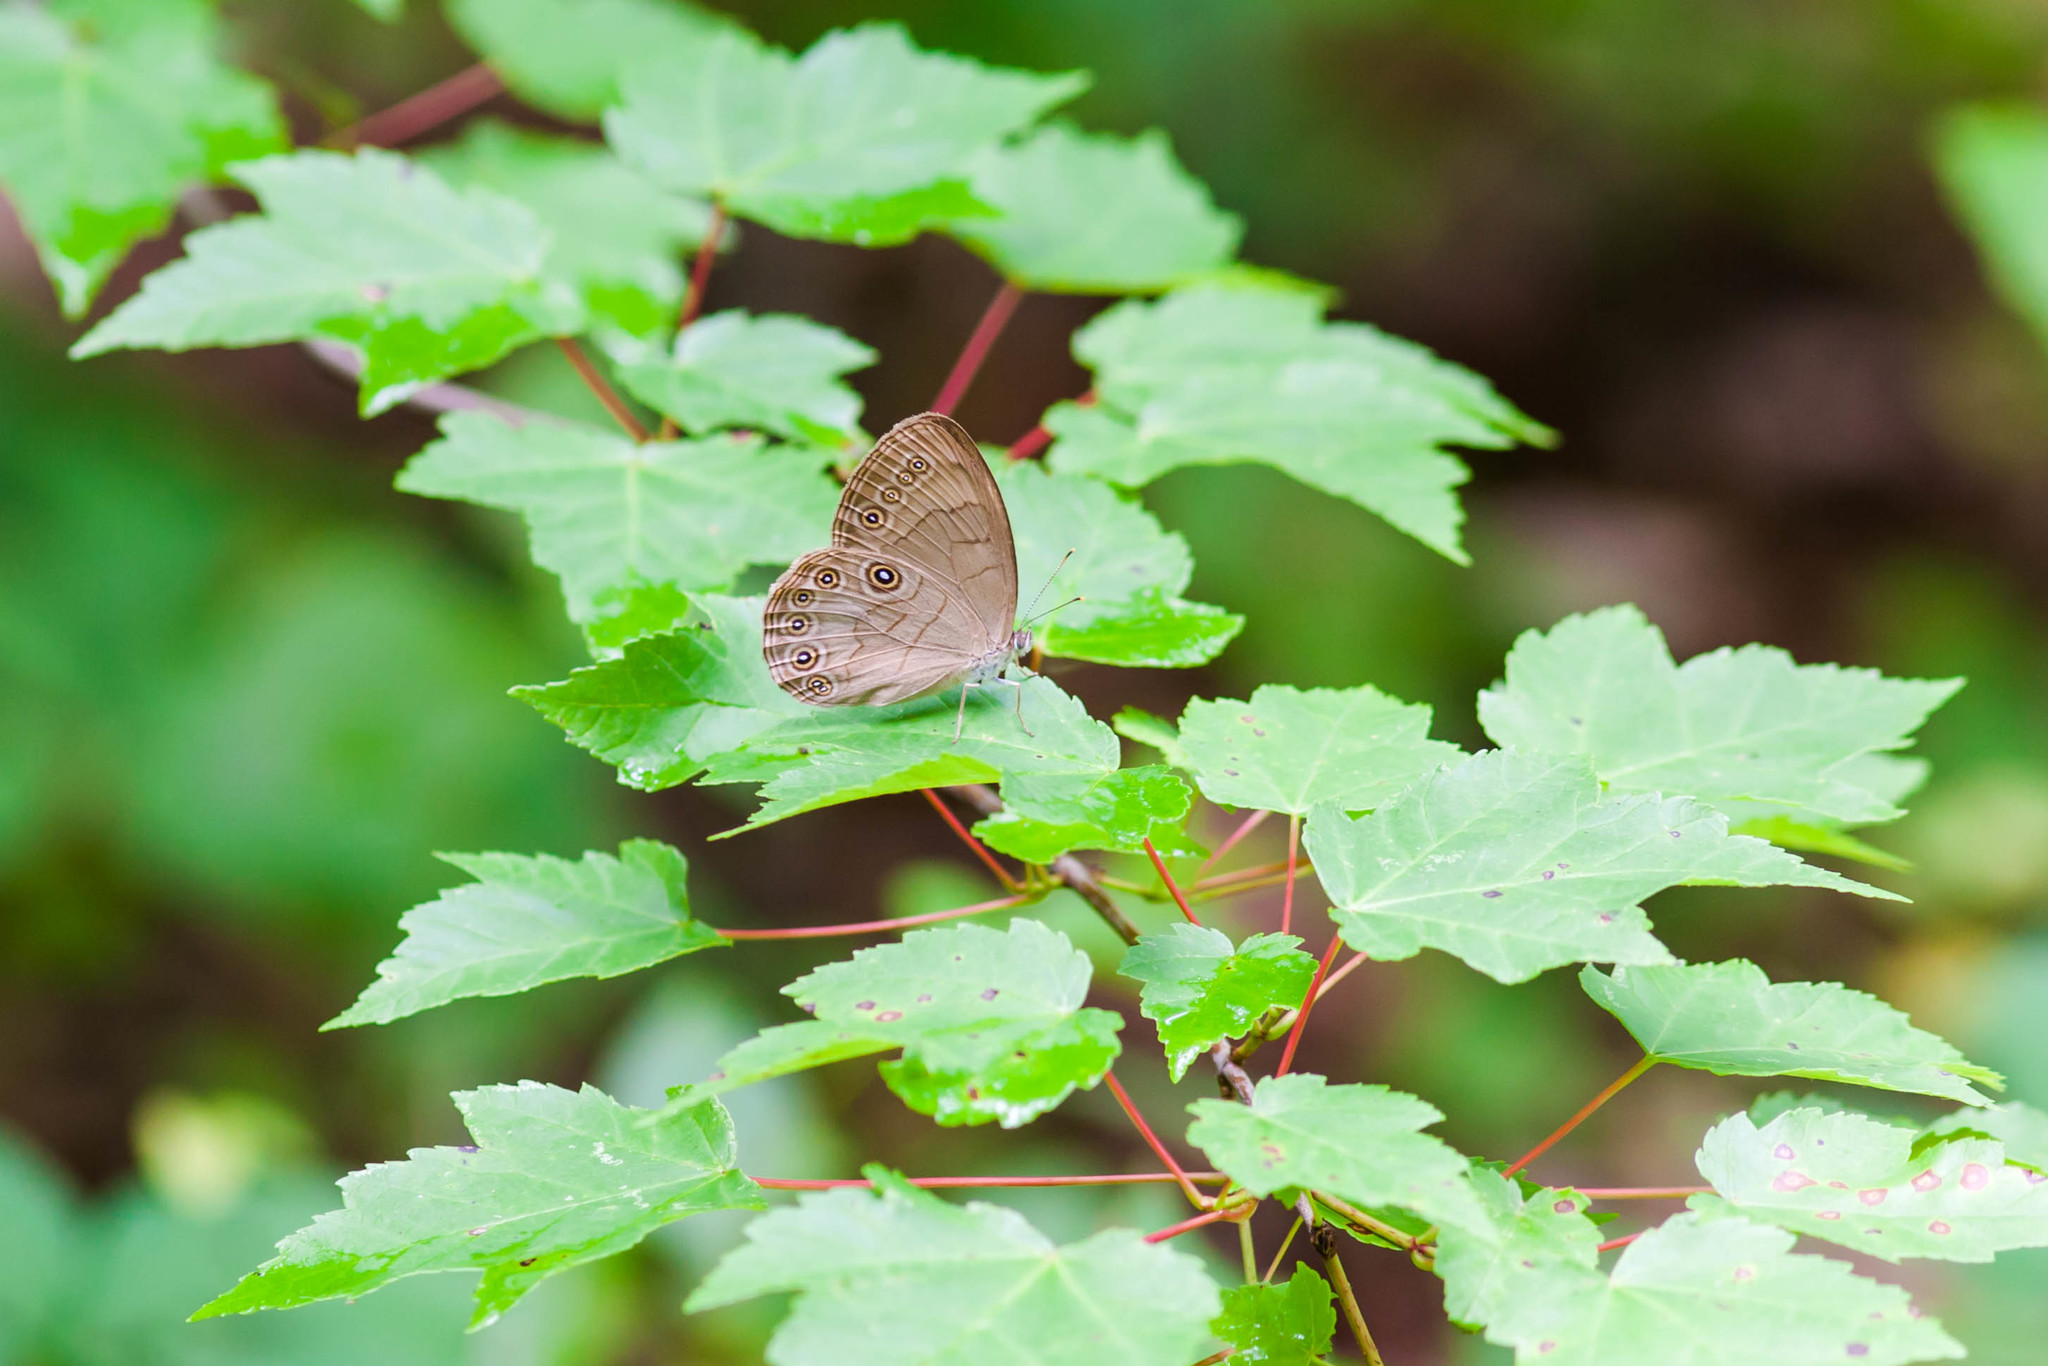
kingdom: Animalia
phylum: Arthropoda
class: Insecta
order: Lepidoptera
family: Nymphalidae
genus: Lethe
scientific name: Lethe eurydice
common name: Eyed brown
